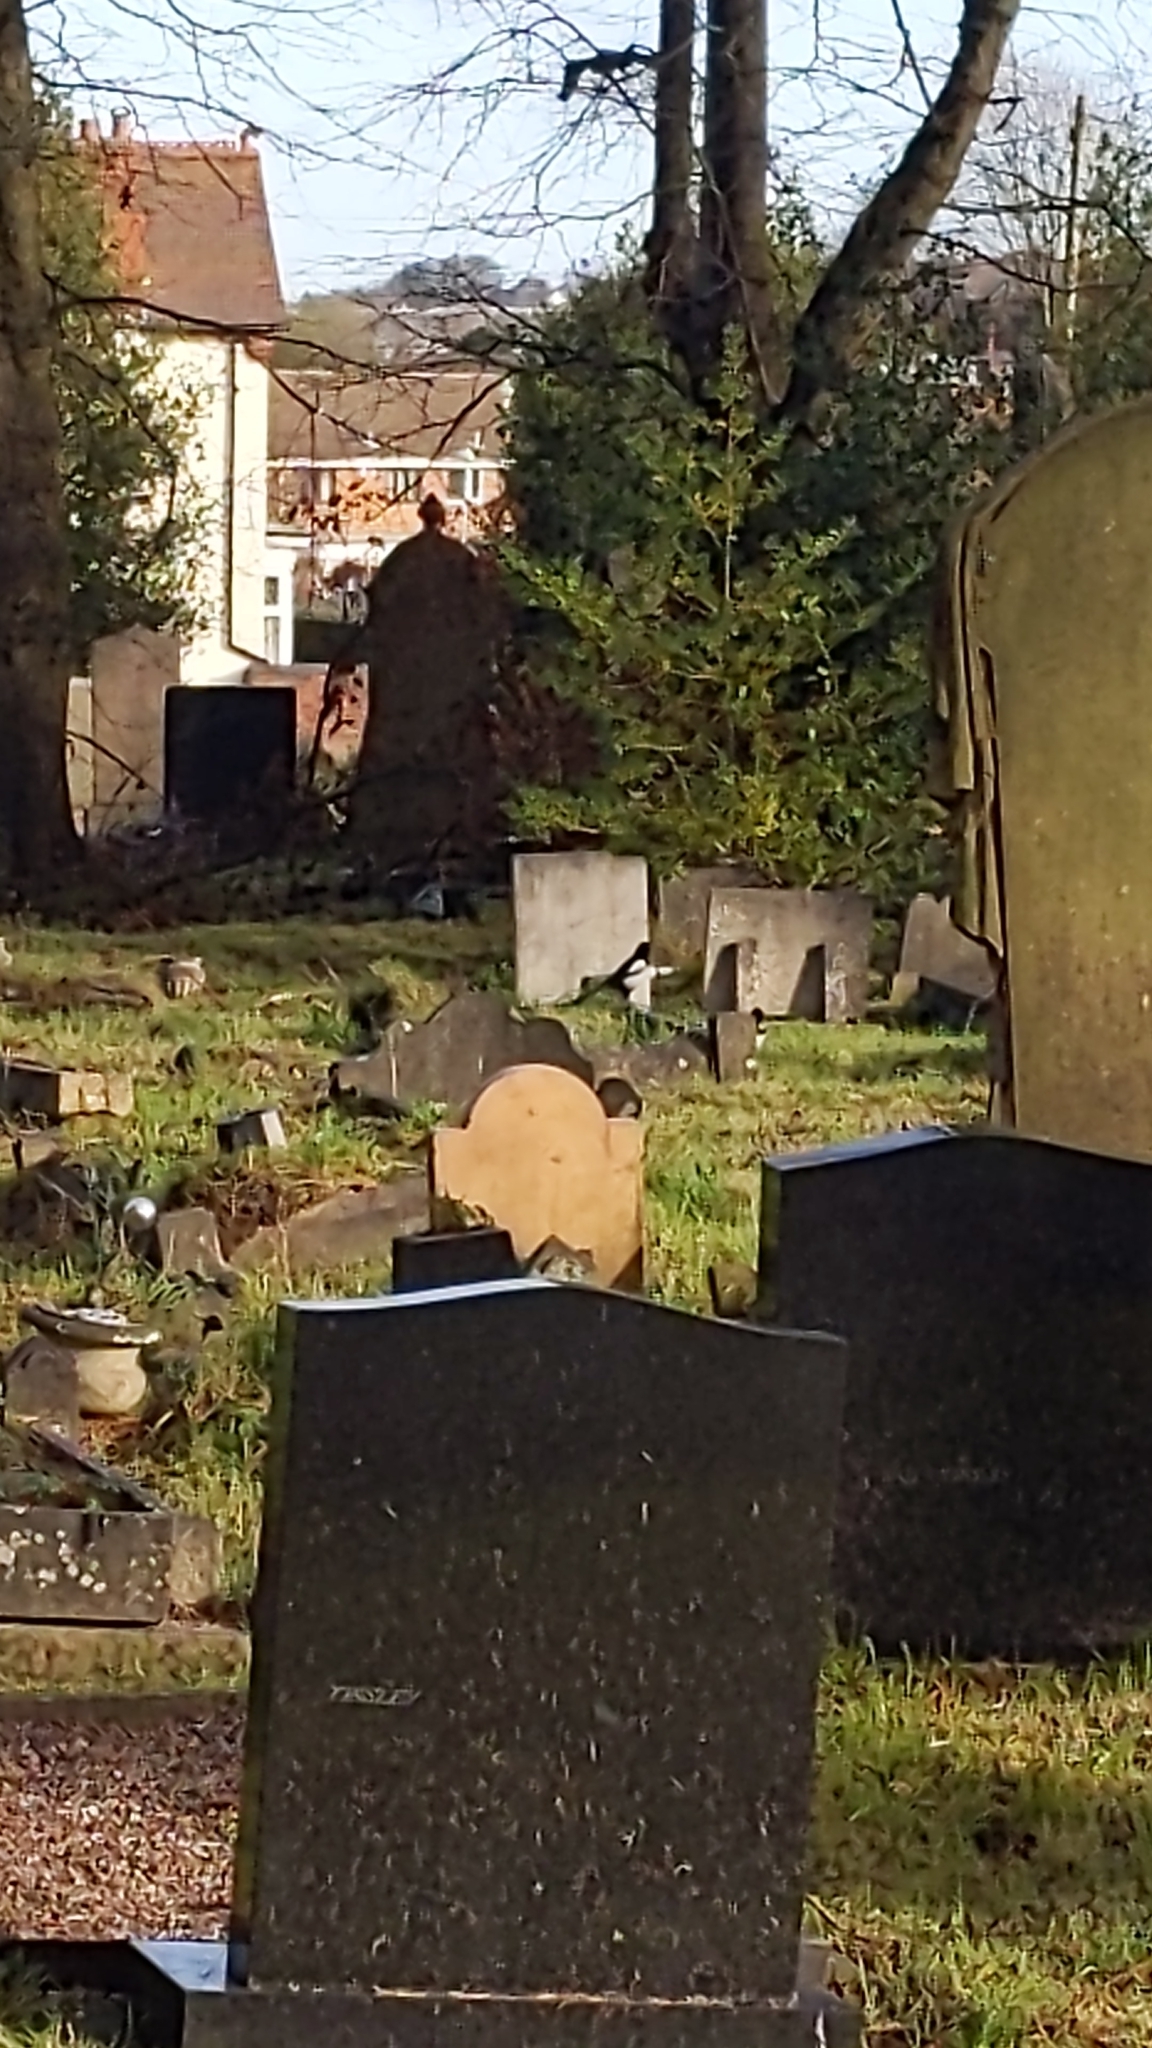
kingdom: Animalia
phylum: Chordata
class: Aves
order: Passeriformes
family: Corvidae
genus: Pica
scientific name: Pica pica
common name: Eurasian magpie
